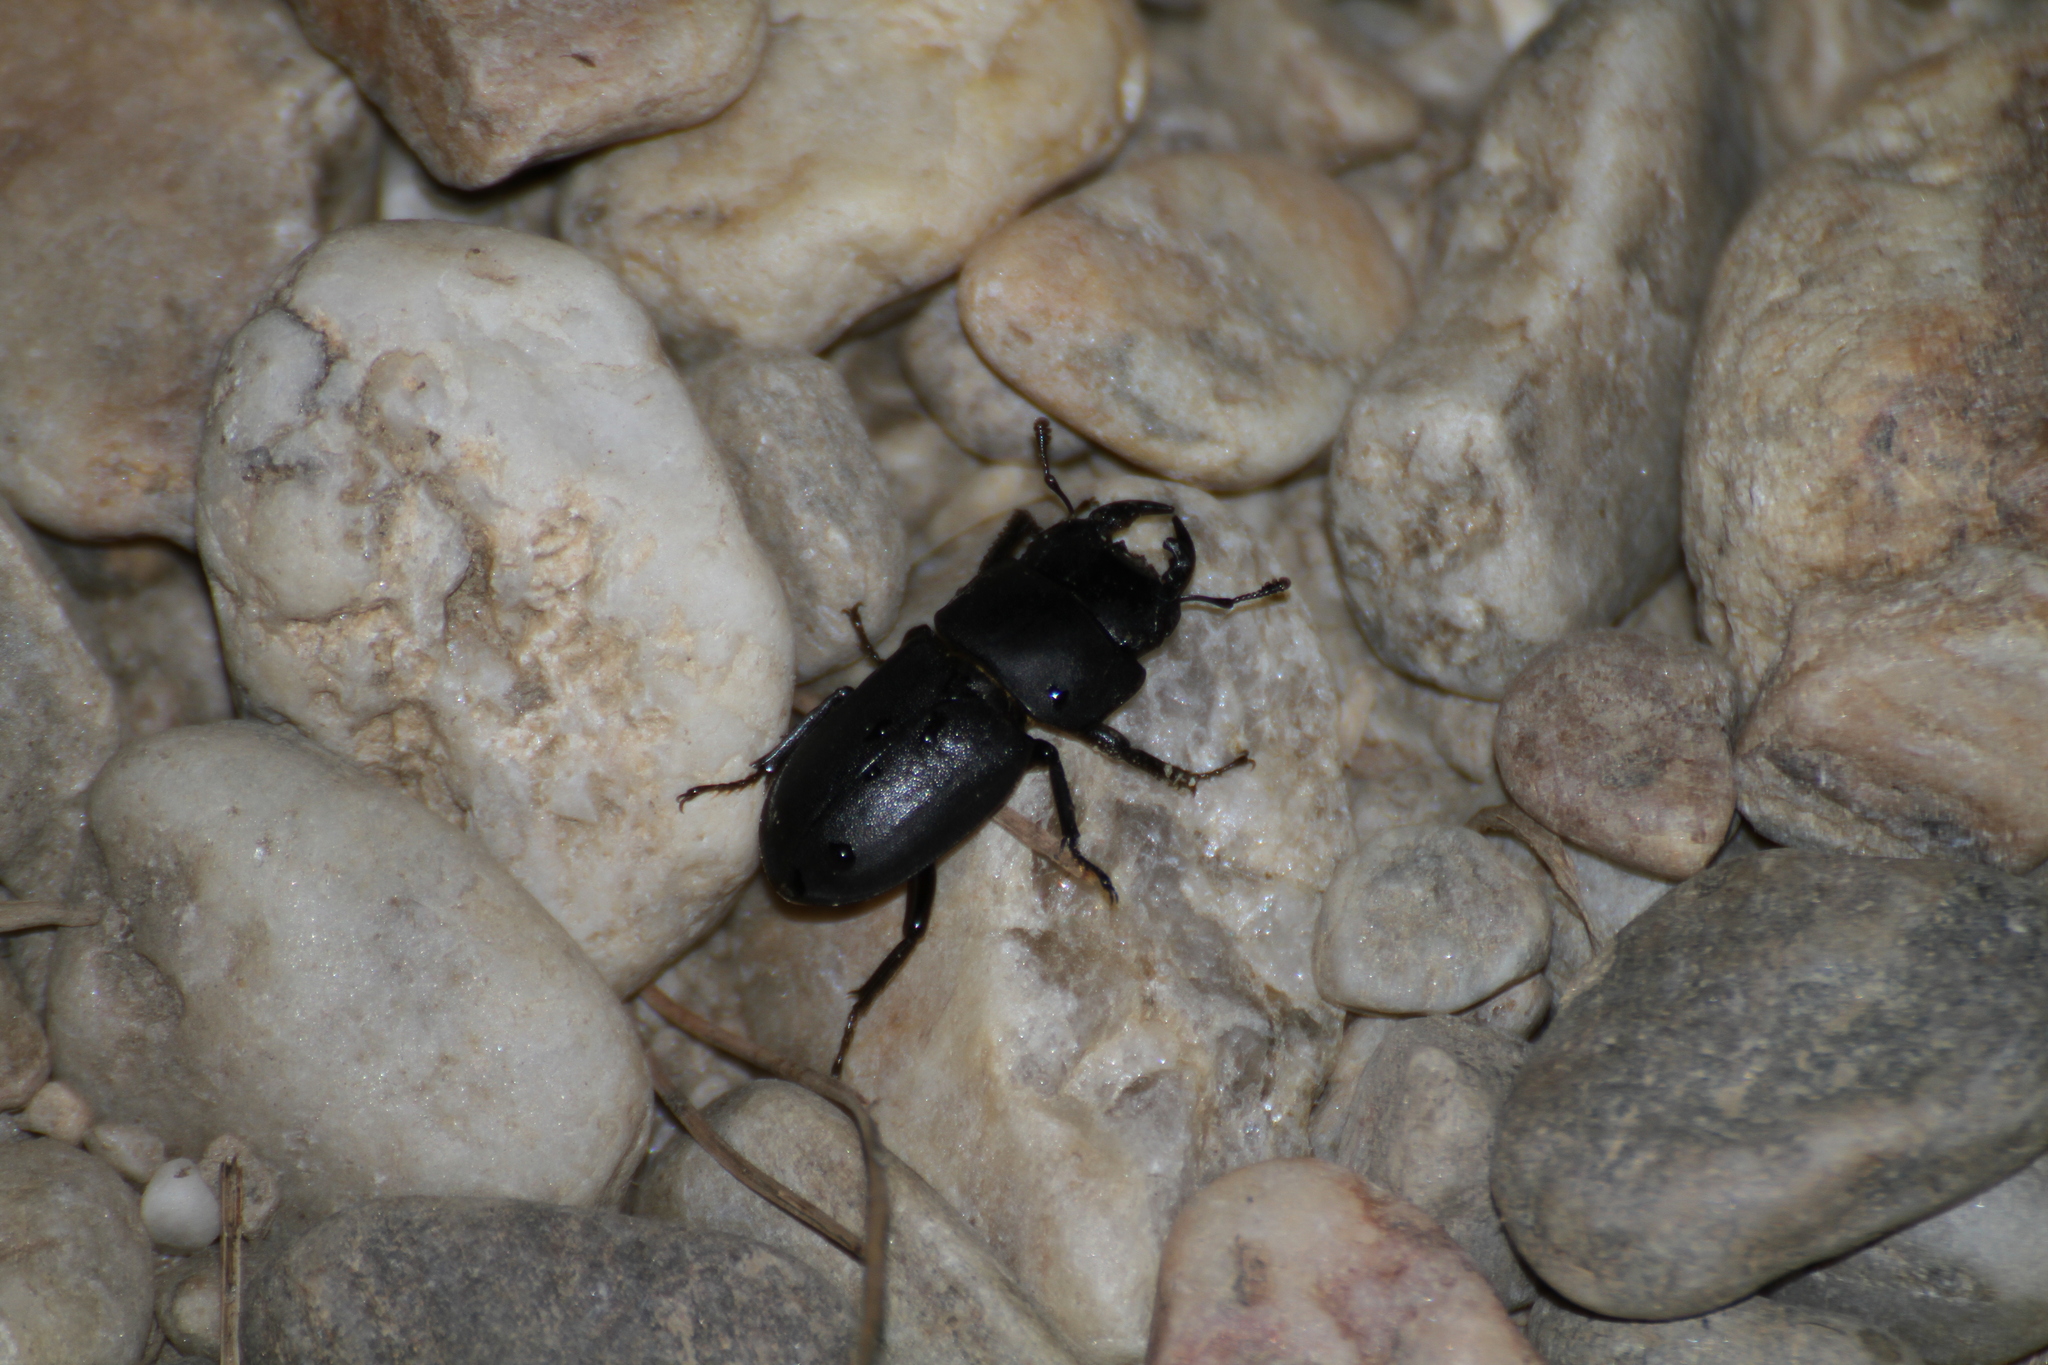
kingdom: Animalia
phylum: Arthropoda
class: Insecta
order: Coleoptera
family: Lucanidae
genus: Dorcus
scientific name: Dorcus parallelipipedus
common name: Lesser stag beetle
